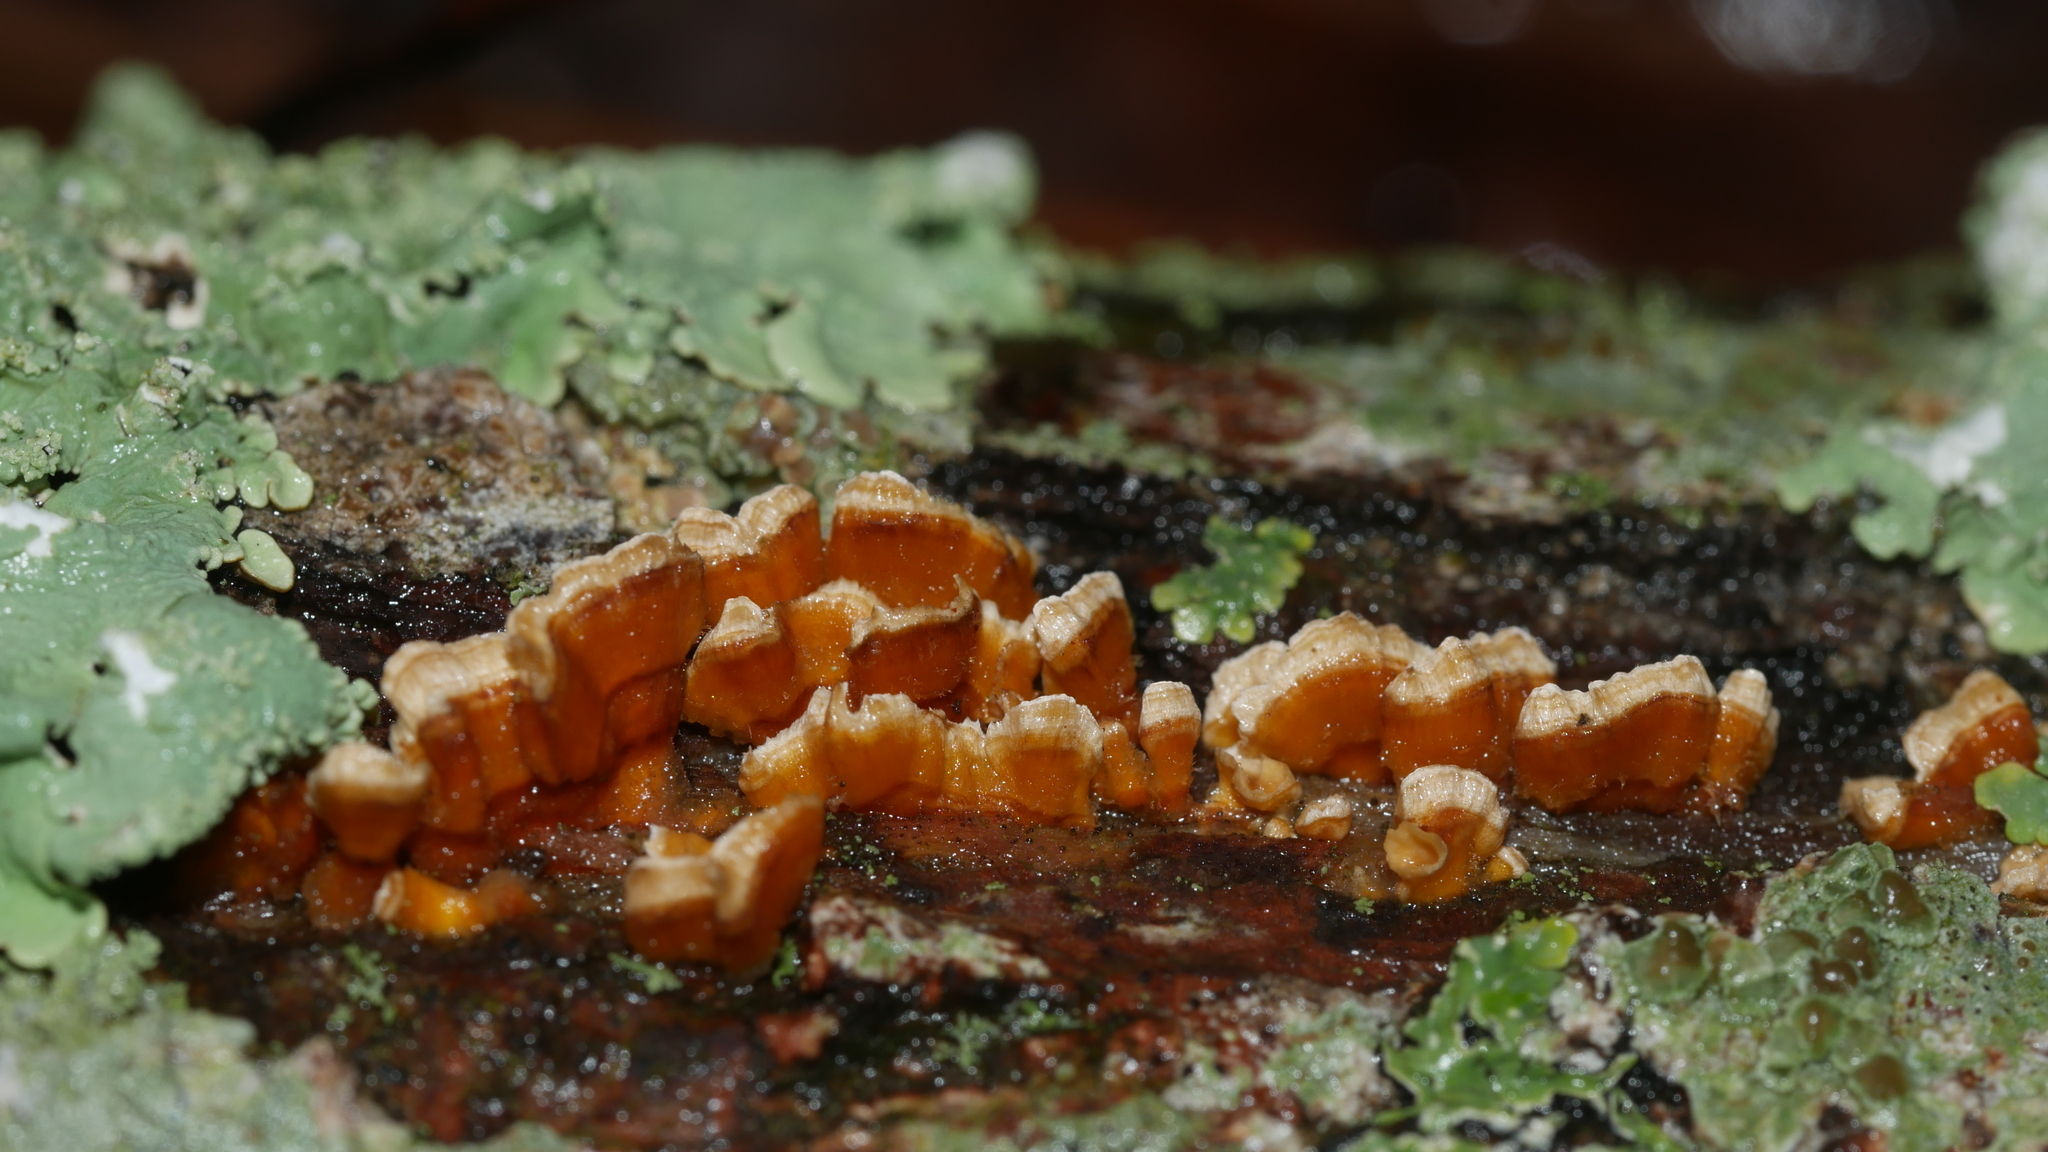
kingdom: Fungi
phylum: Basidiomycota
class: Agaricomycetes
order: Russulales
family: Stereaceae
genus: Stereum
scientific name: Stereum complicatum
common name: Crowded parchment
